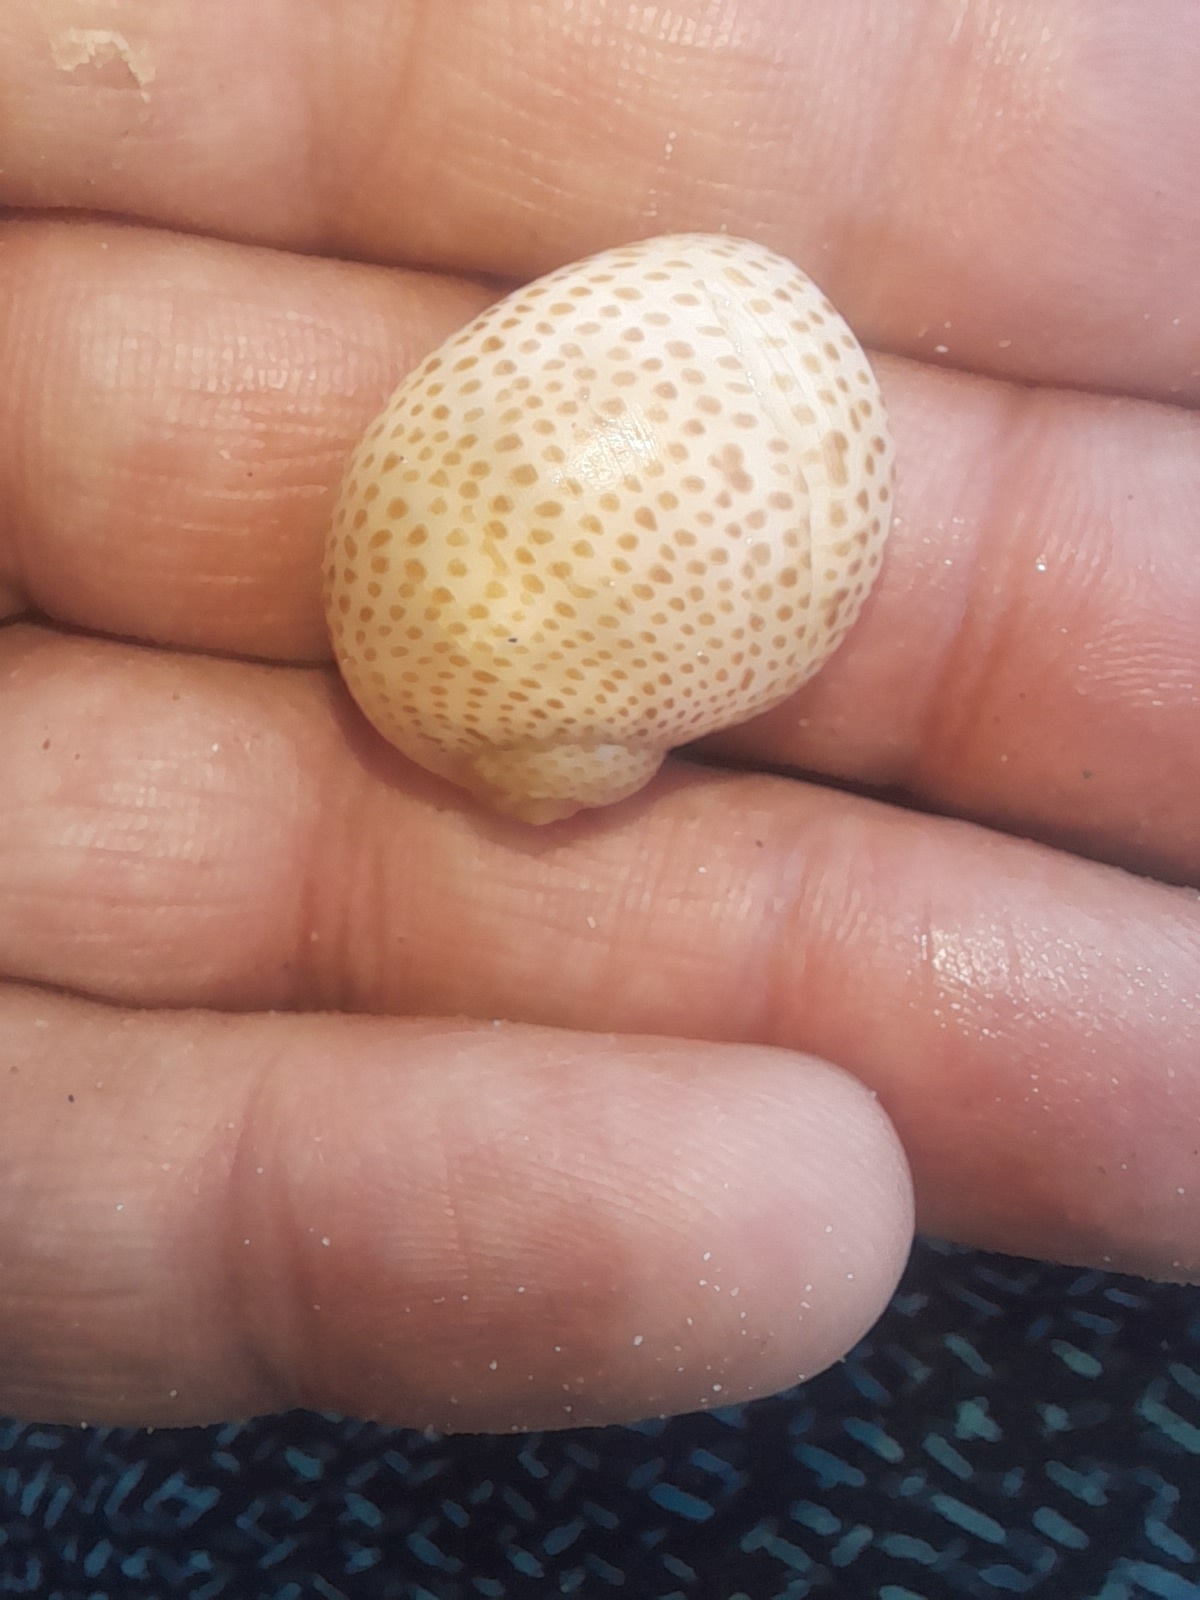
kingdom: Animalia
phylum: Mollusca
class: Gastropoda
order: Littorinimorpha
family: Naticidae
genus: Naticarius
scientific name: Naticarius stercusmuscarum
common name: Fly-speck moonsnail
